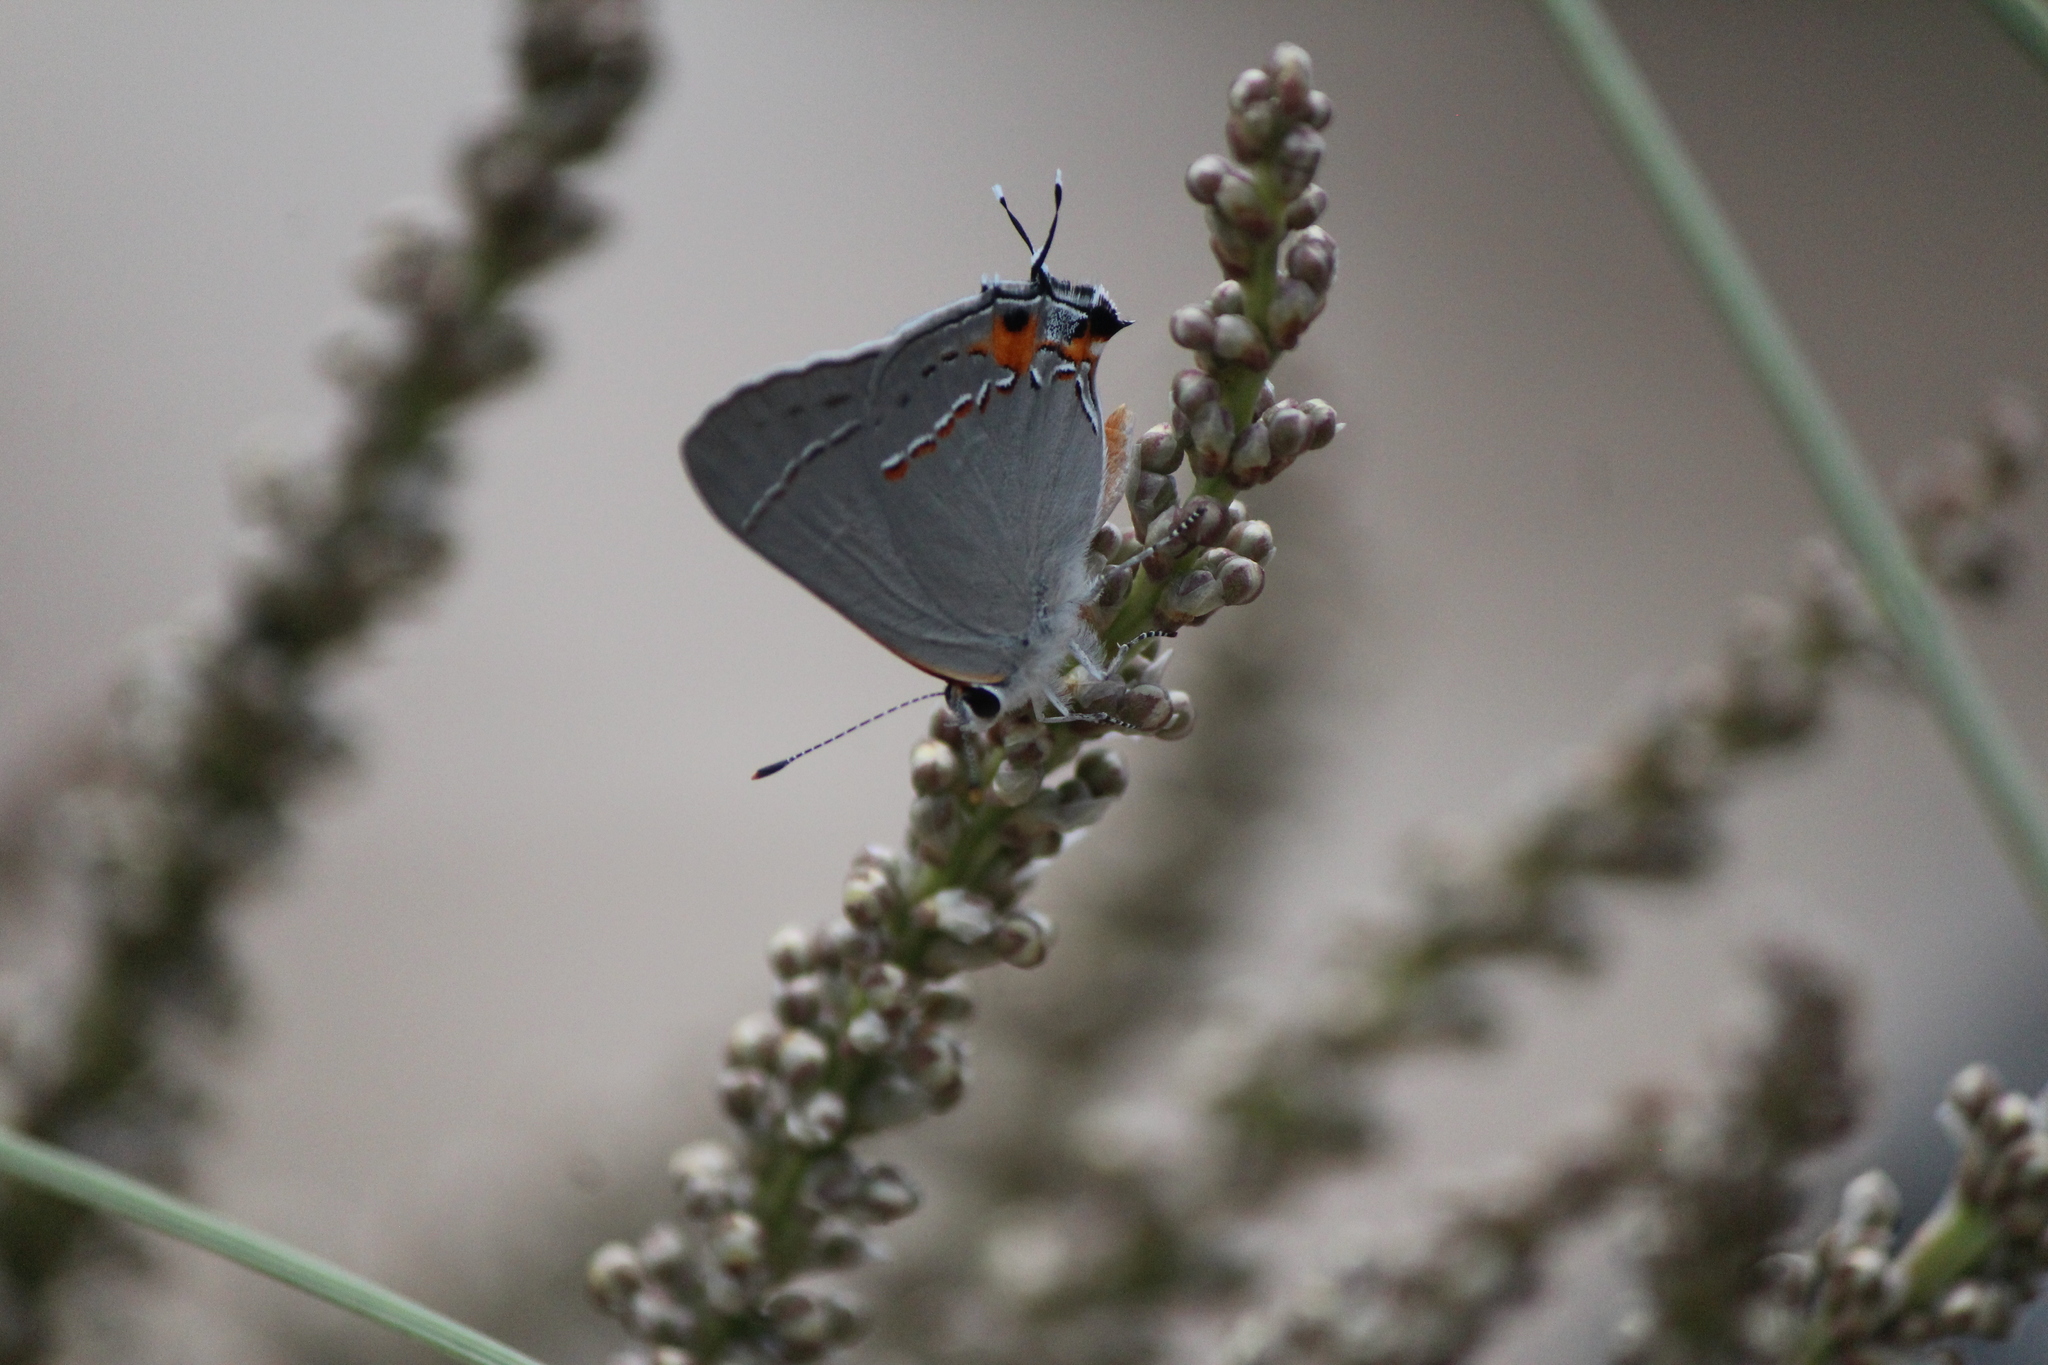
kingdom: Animalia
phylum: Arthropoda
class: Insecta
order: Lepidoptera
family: Lycaenidae
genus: Strymon
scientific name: Strymon melinus
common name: Gray hairstreak
